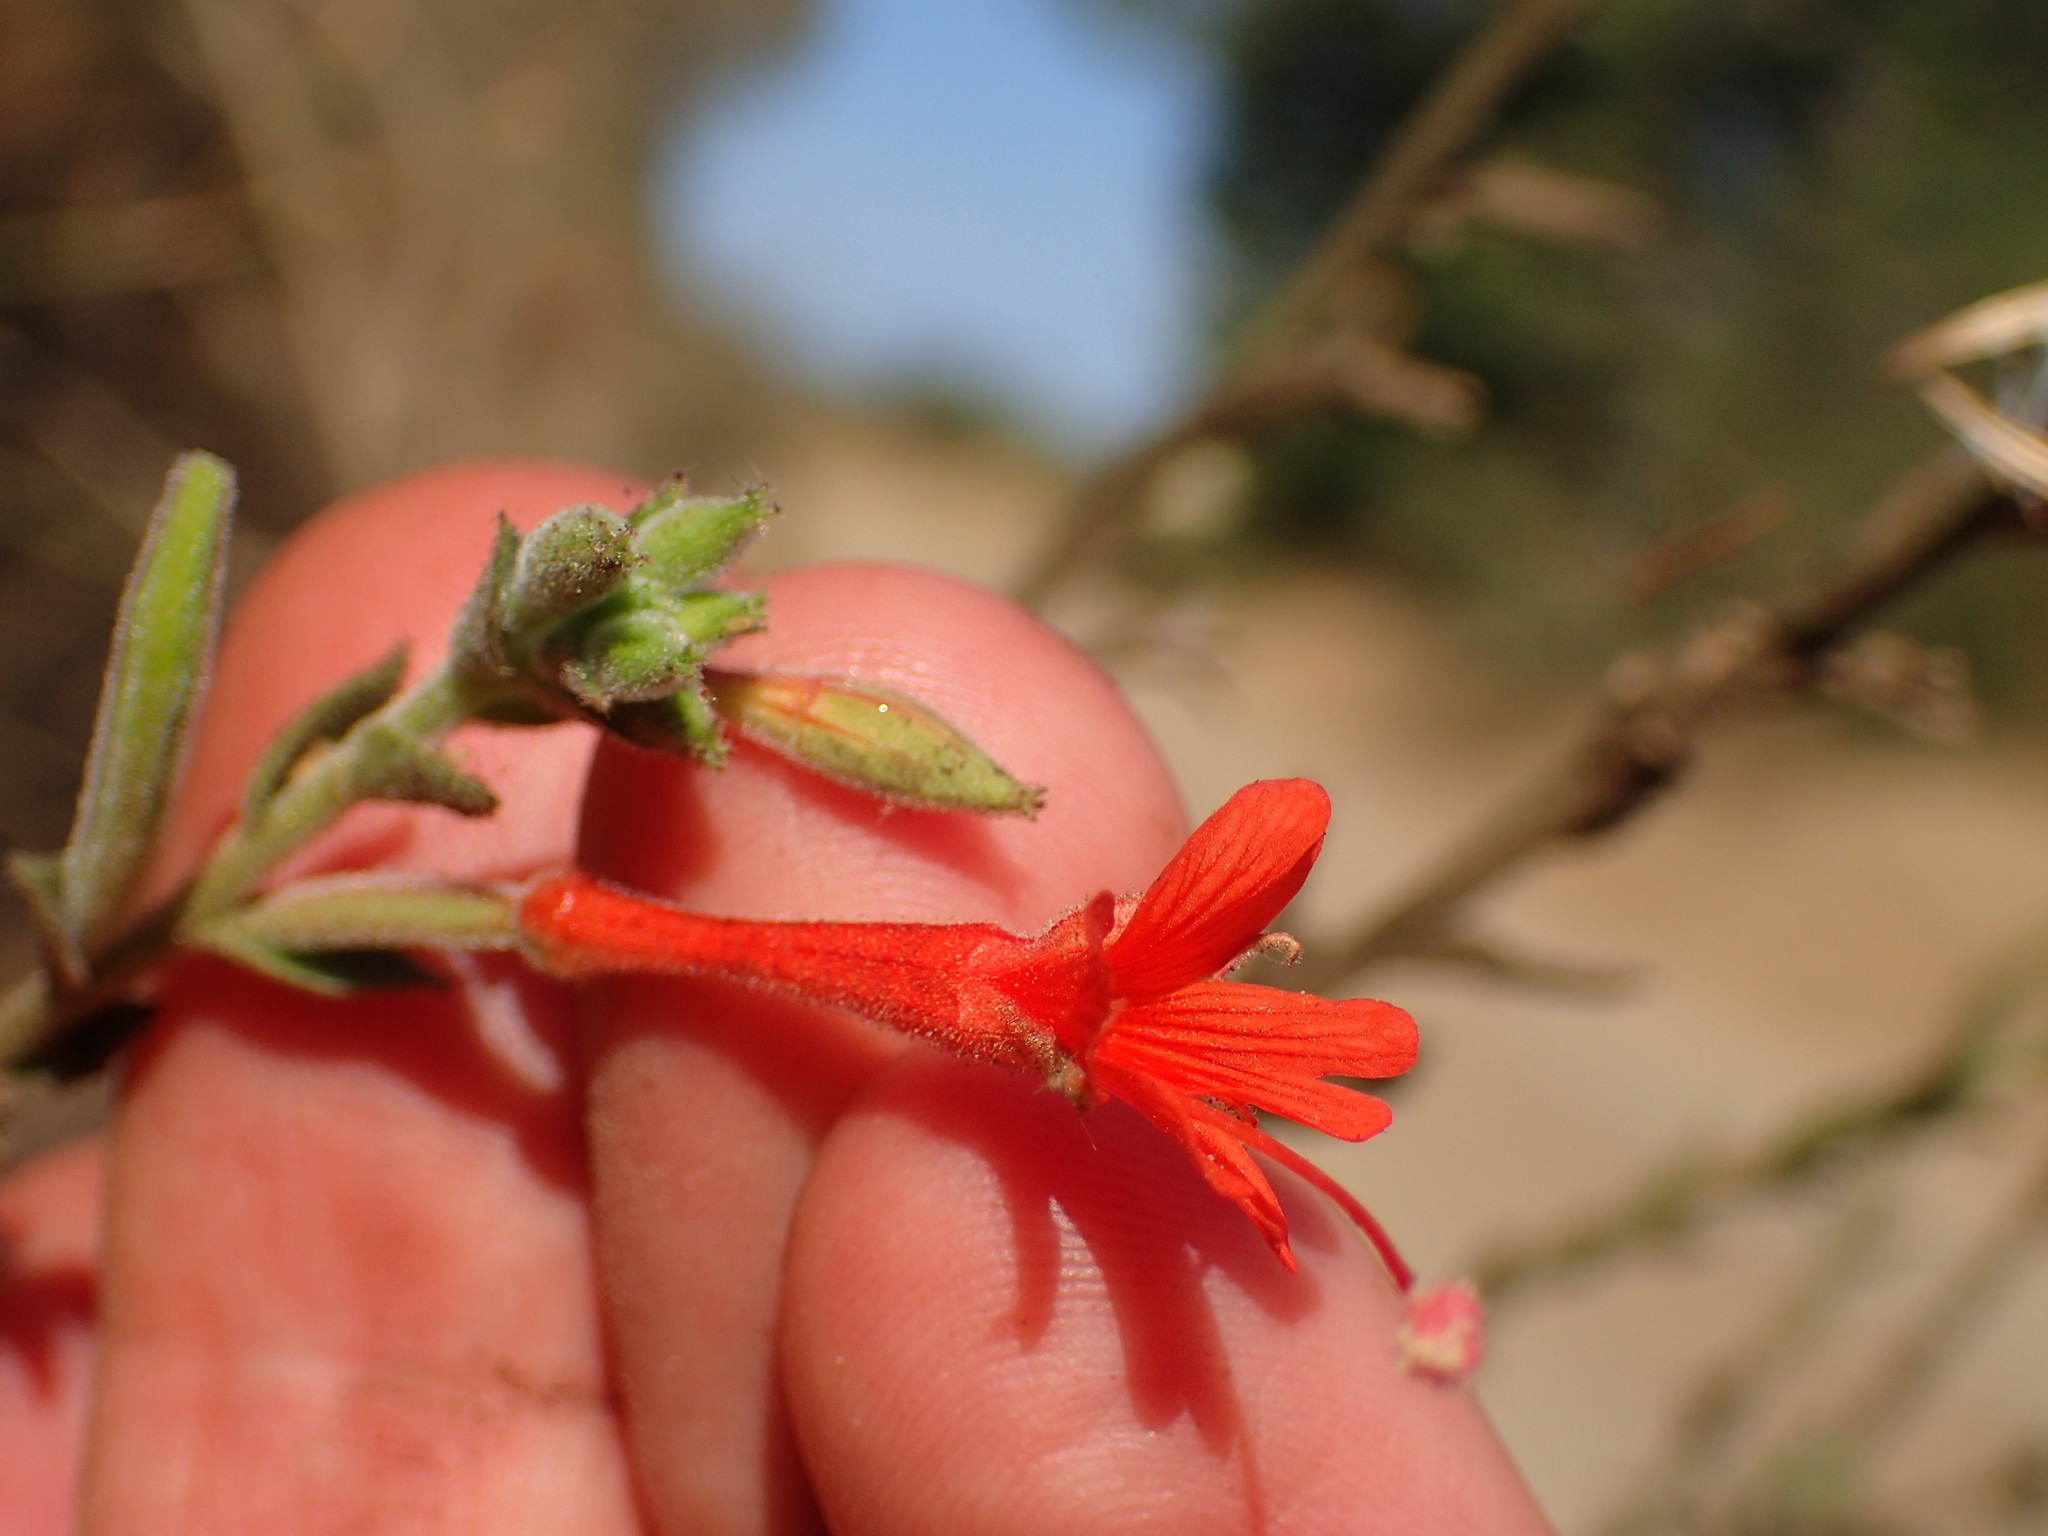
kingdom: Plantae
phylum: Tracheophyta
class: Magnoliopsida
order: Myrtales
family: Onagraceae
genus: Epilobium
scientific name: Epilobium canum
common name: California-fuchsia
